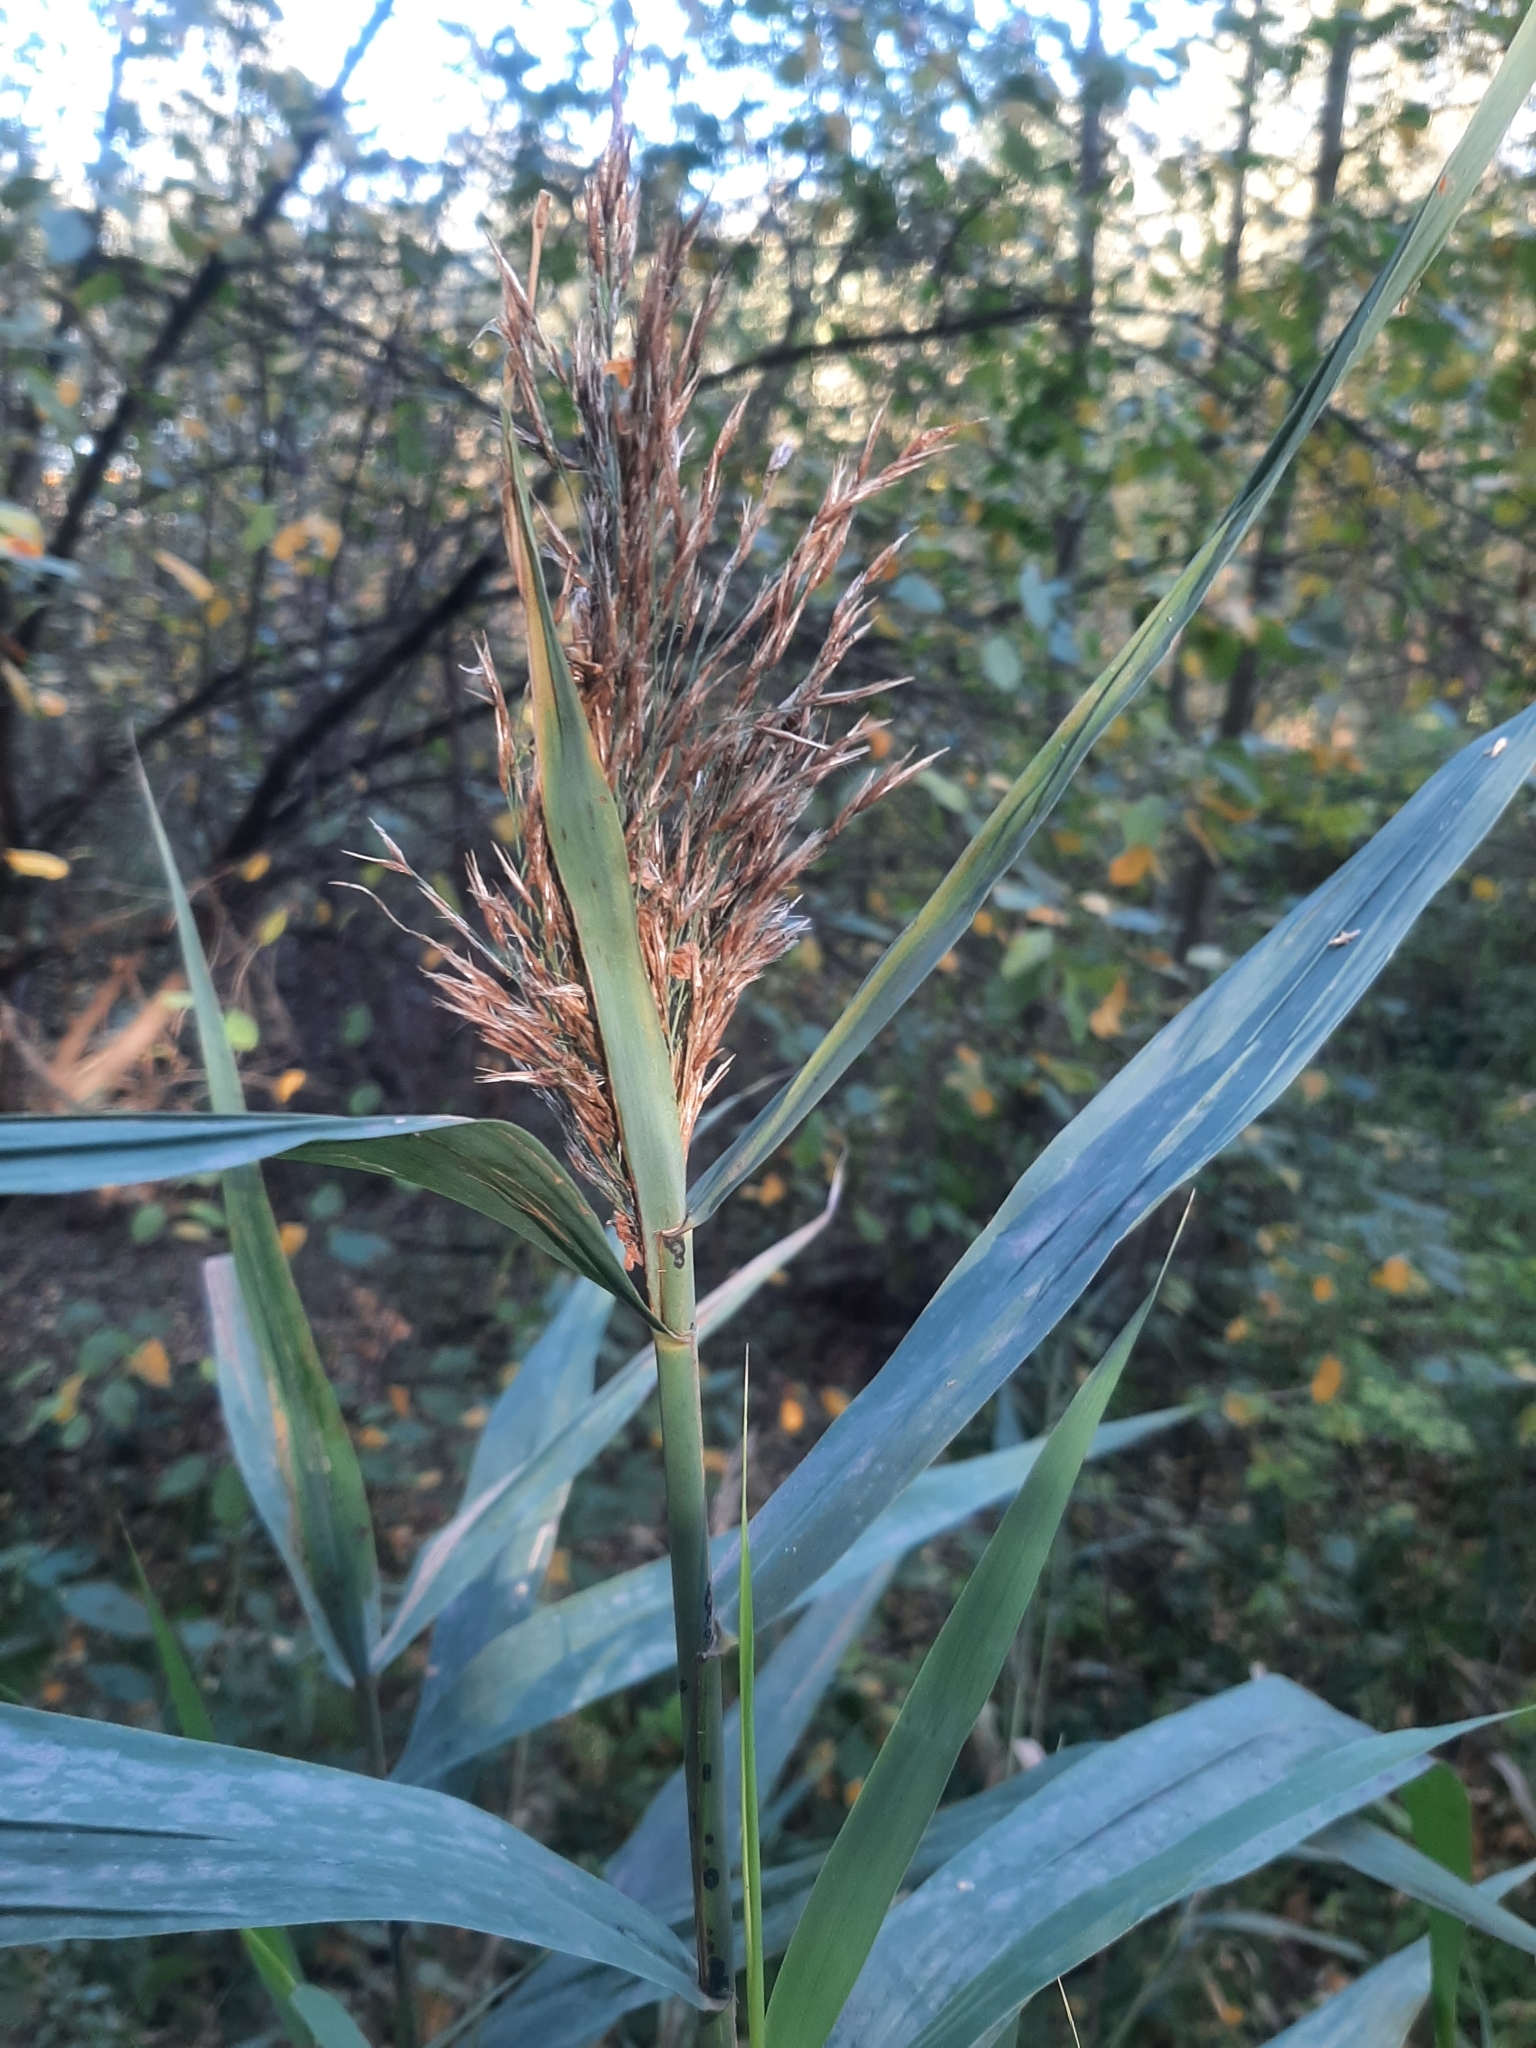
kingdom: Plantae
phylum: Tracheophyta
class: Liliopsida
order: Poales
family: Poaceae
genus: Phragmites
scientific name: Phragmites australis
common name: Common reed
